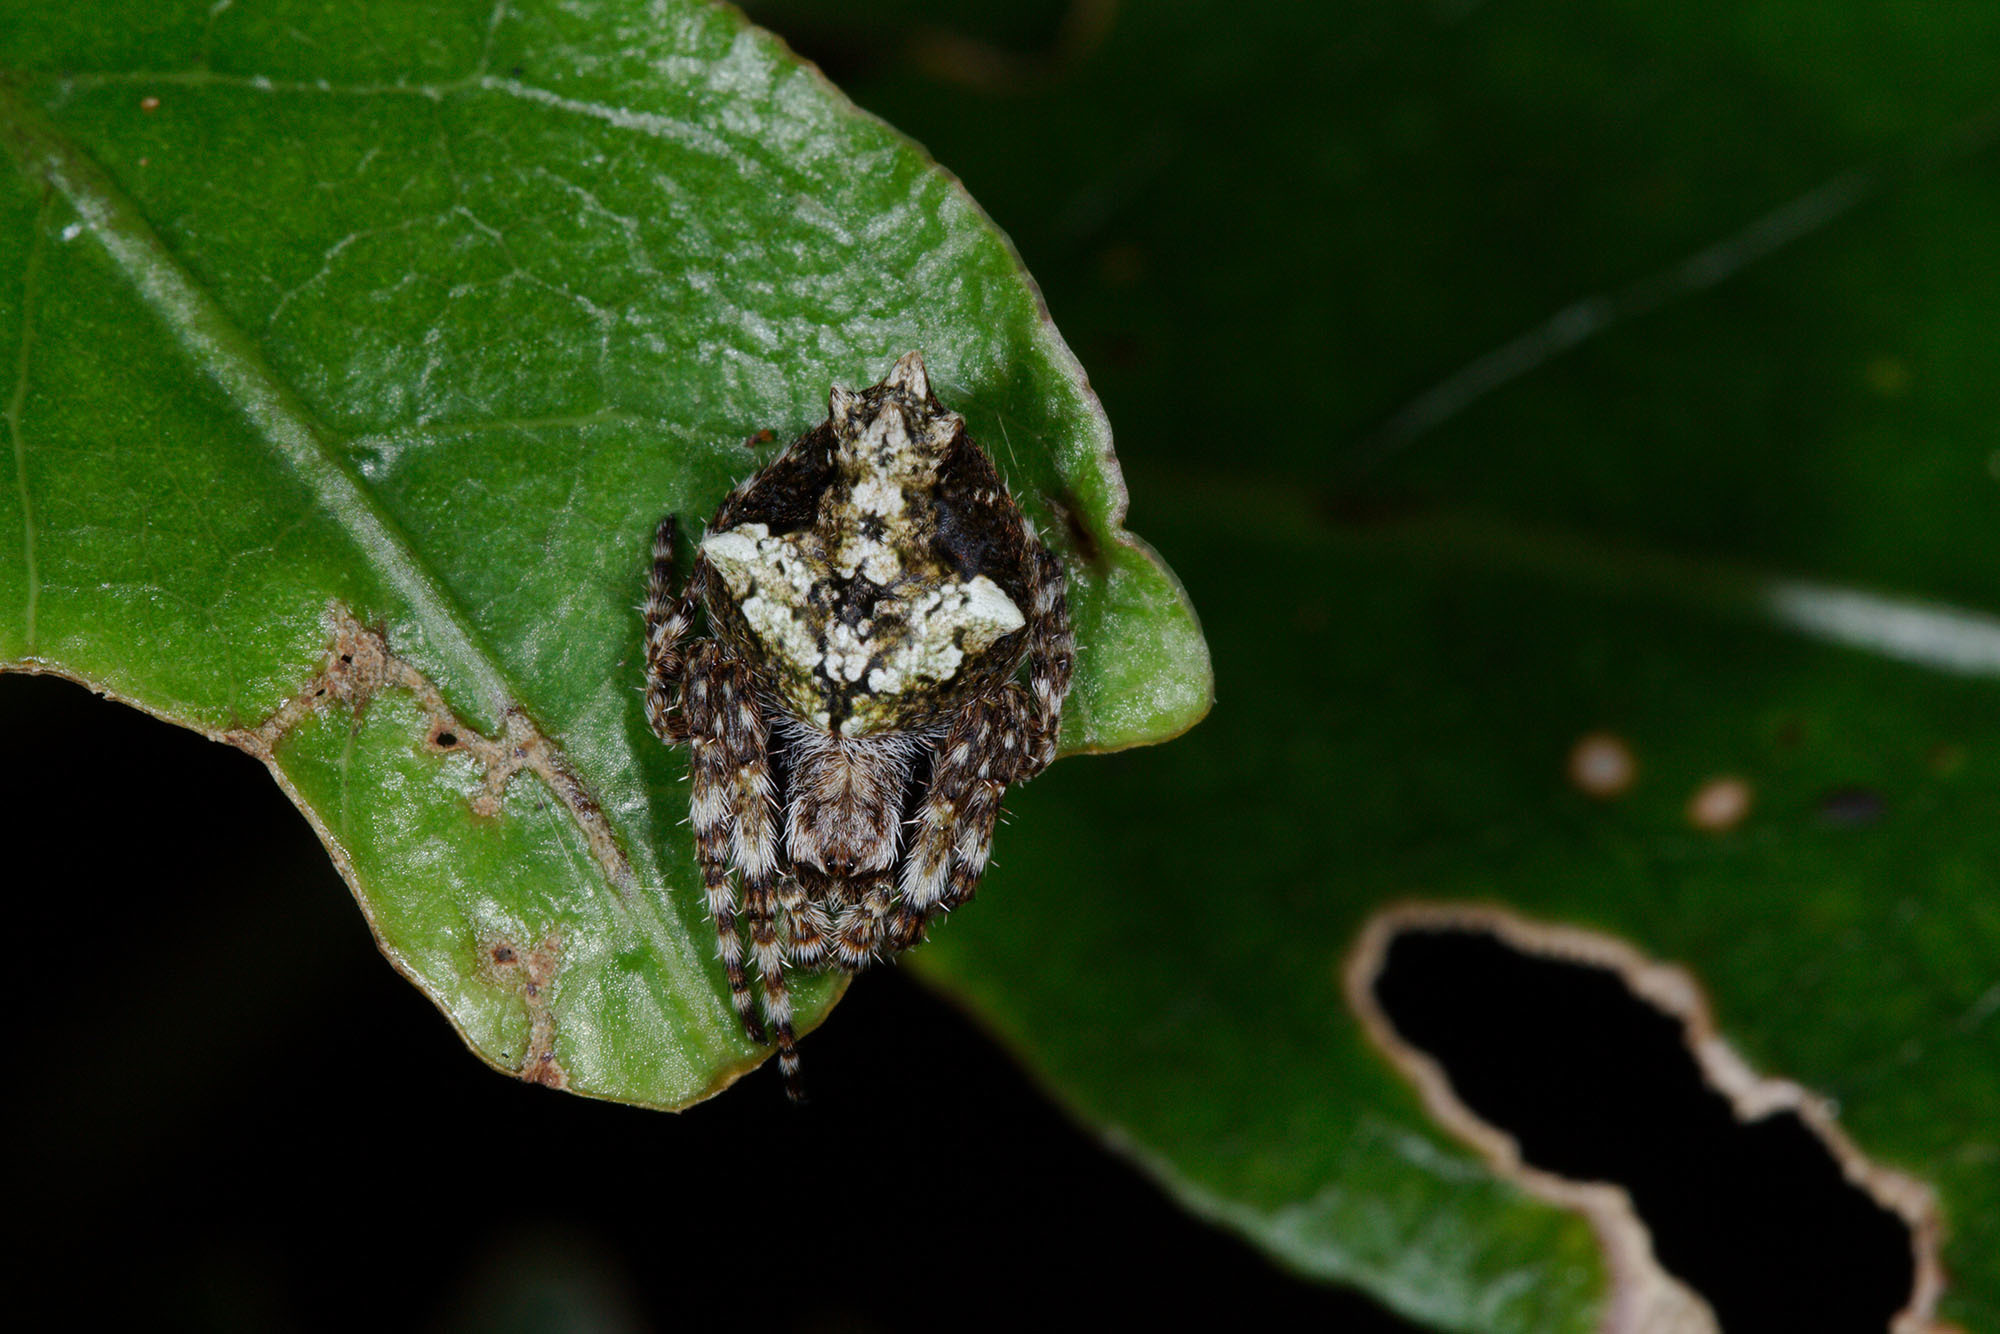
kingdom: Animalia
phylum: Arthropoda
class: Arachnida
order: Araneae
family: Araneidae
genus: Eriophora
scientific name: Eriophora pustulosa
